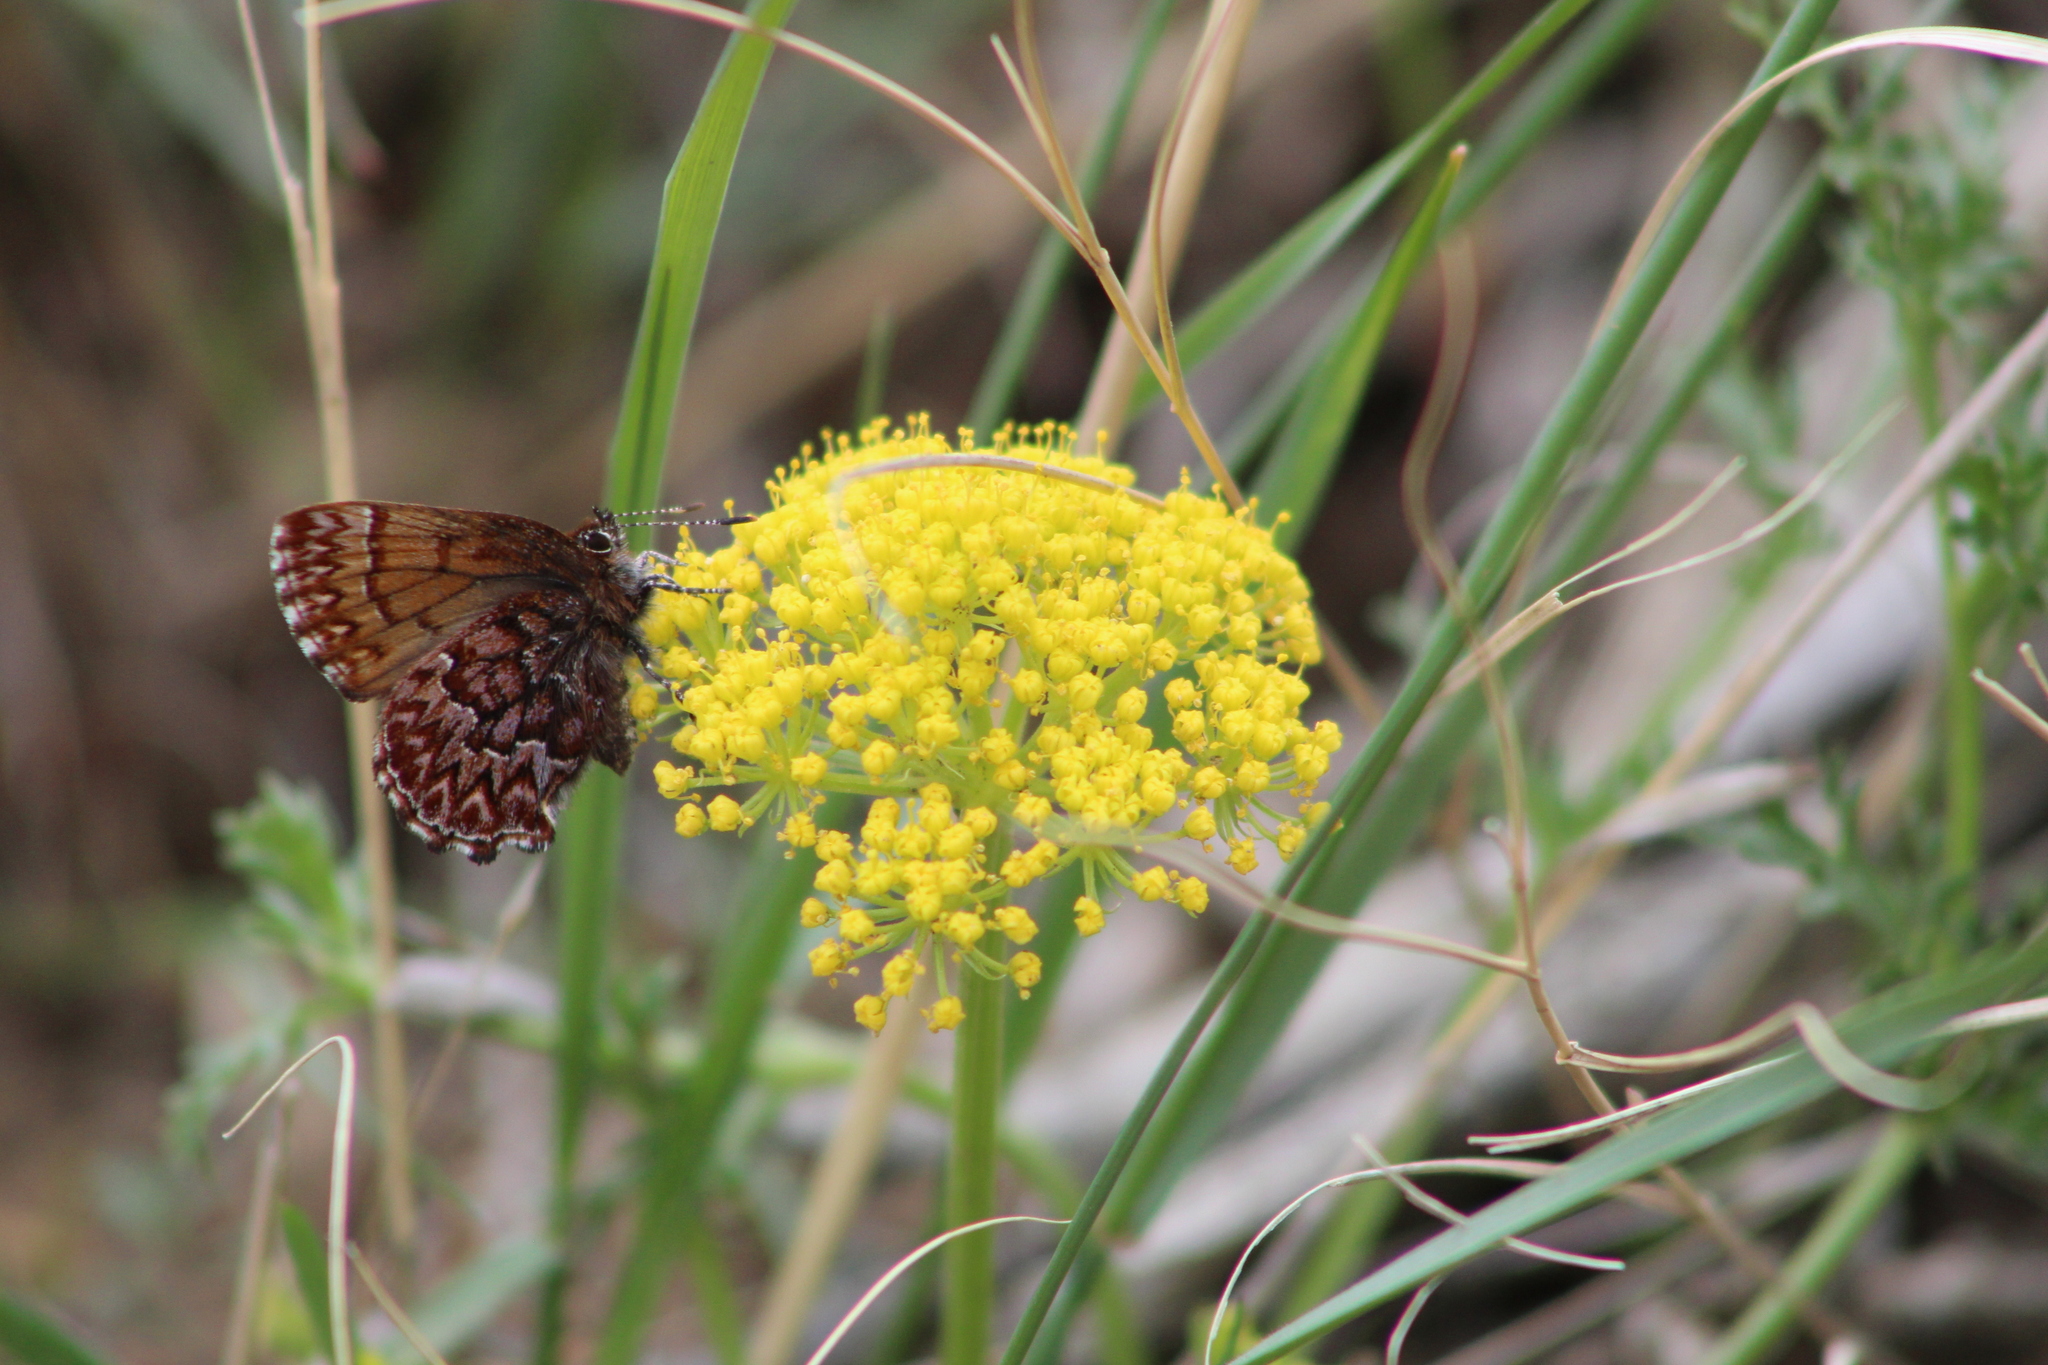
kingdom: Animalia
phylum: Arthropoda
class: Insecta
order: Lepidoptera
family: Lycaenidae
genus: Incisalia
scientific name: Incisalia eryphon
